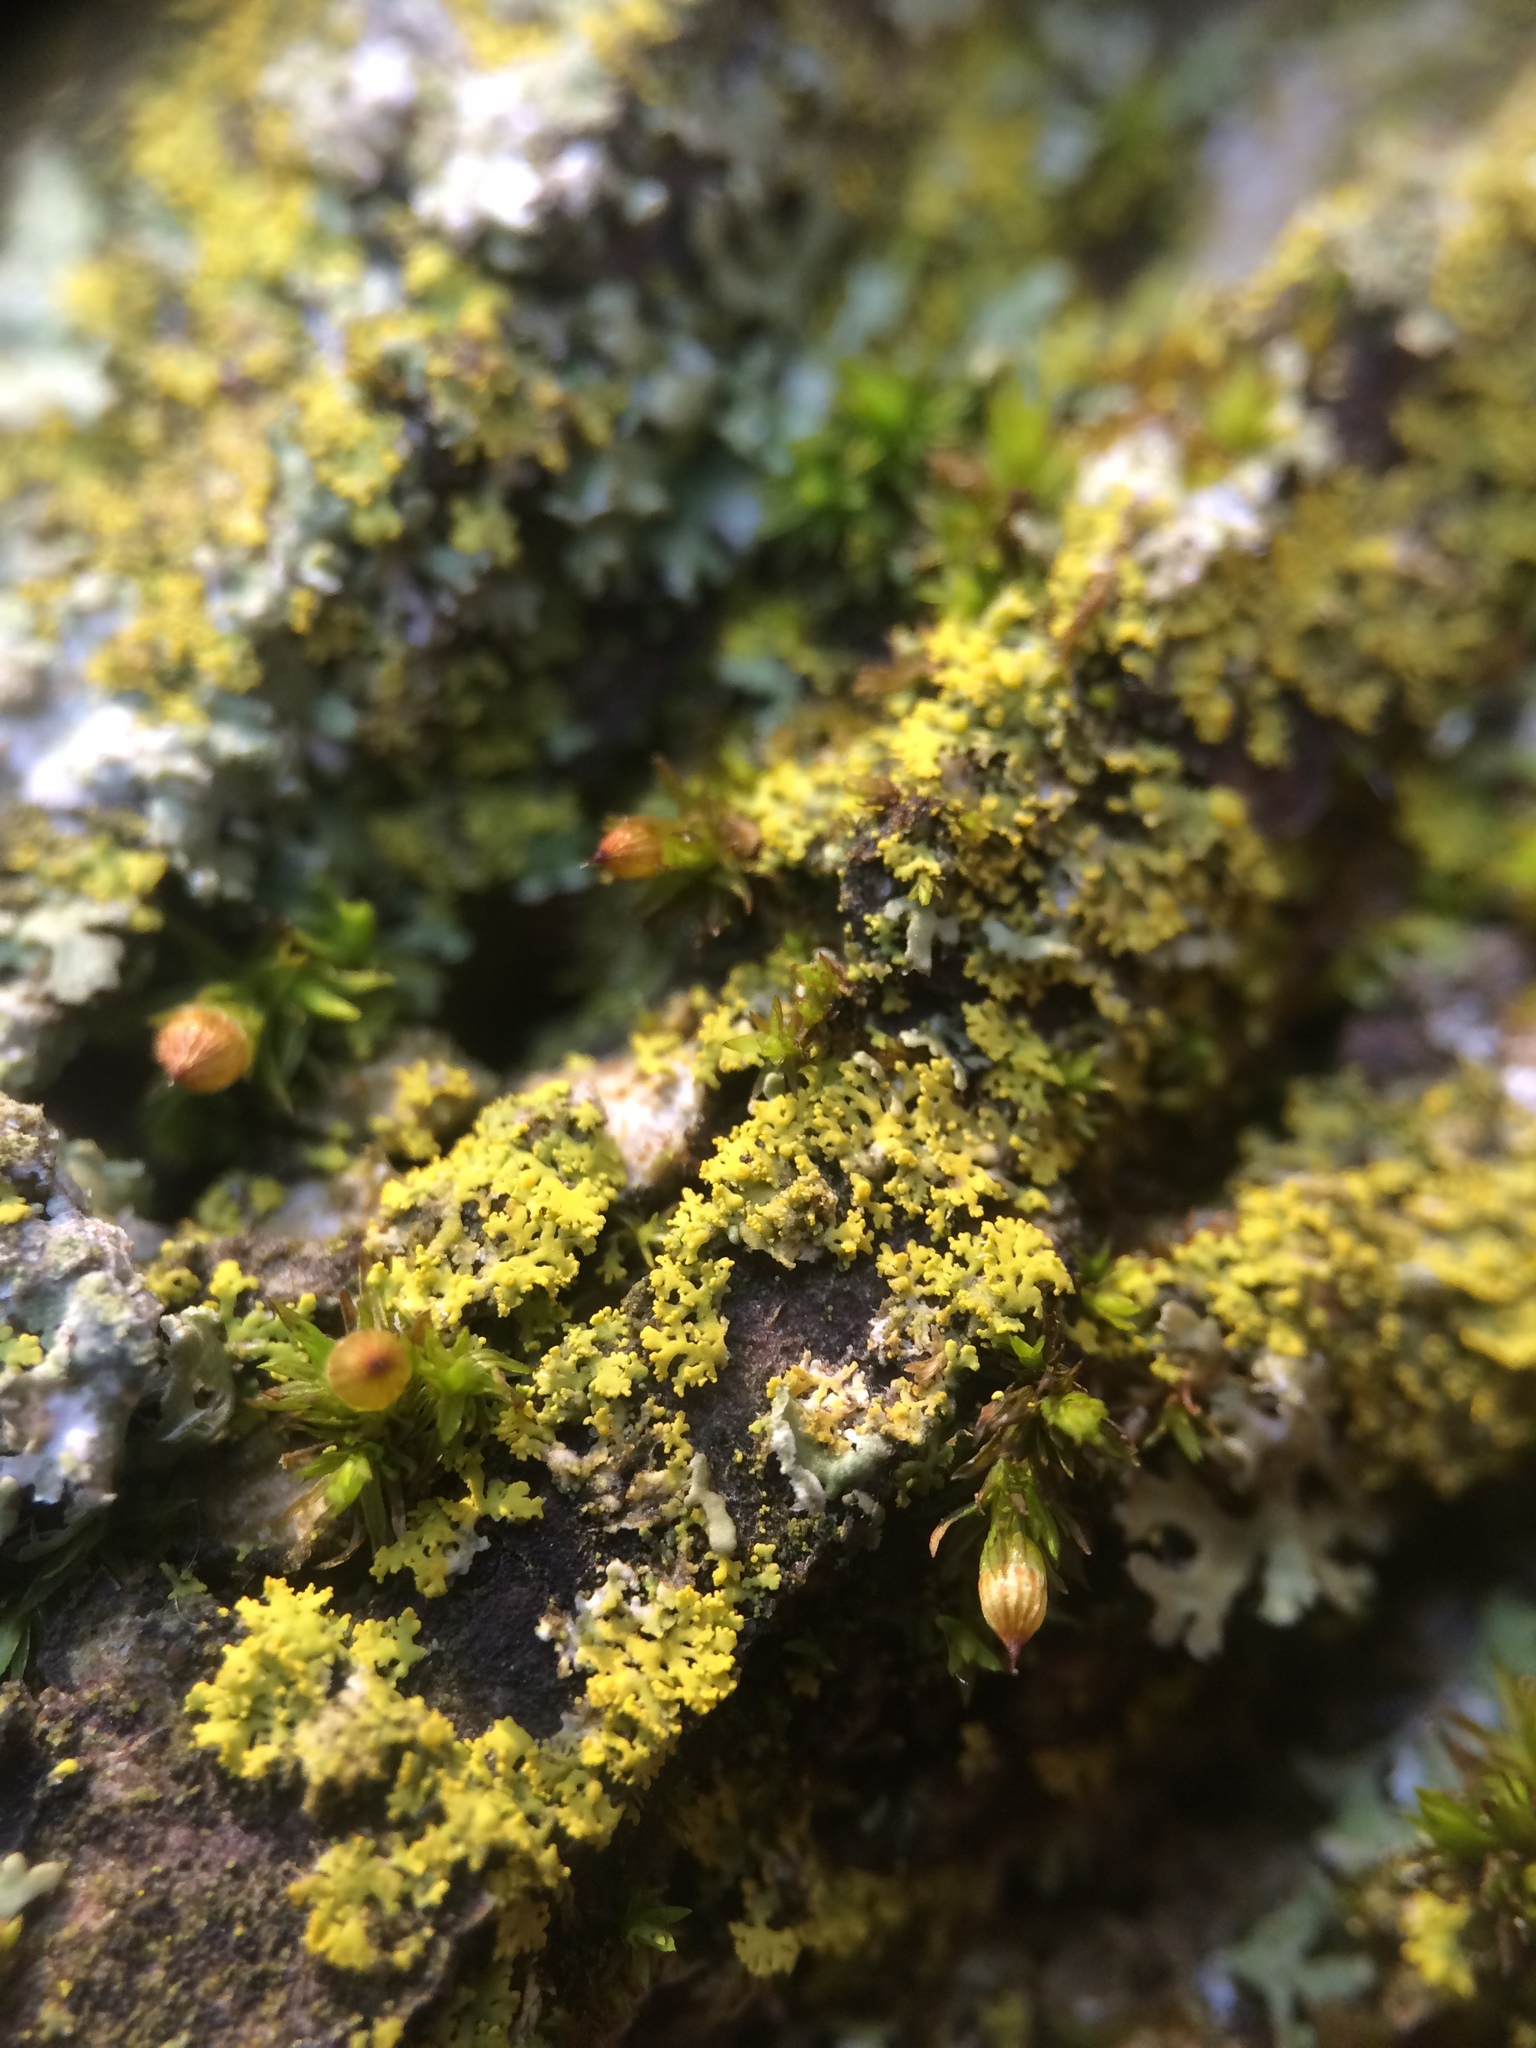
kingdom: Fungi
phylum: Ascomycota
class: Candelariomycetes
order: Candelariales
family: Candelariaceae
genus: Candelaria
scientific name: Candelaria concolor
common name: Candleflame lichen
